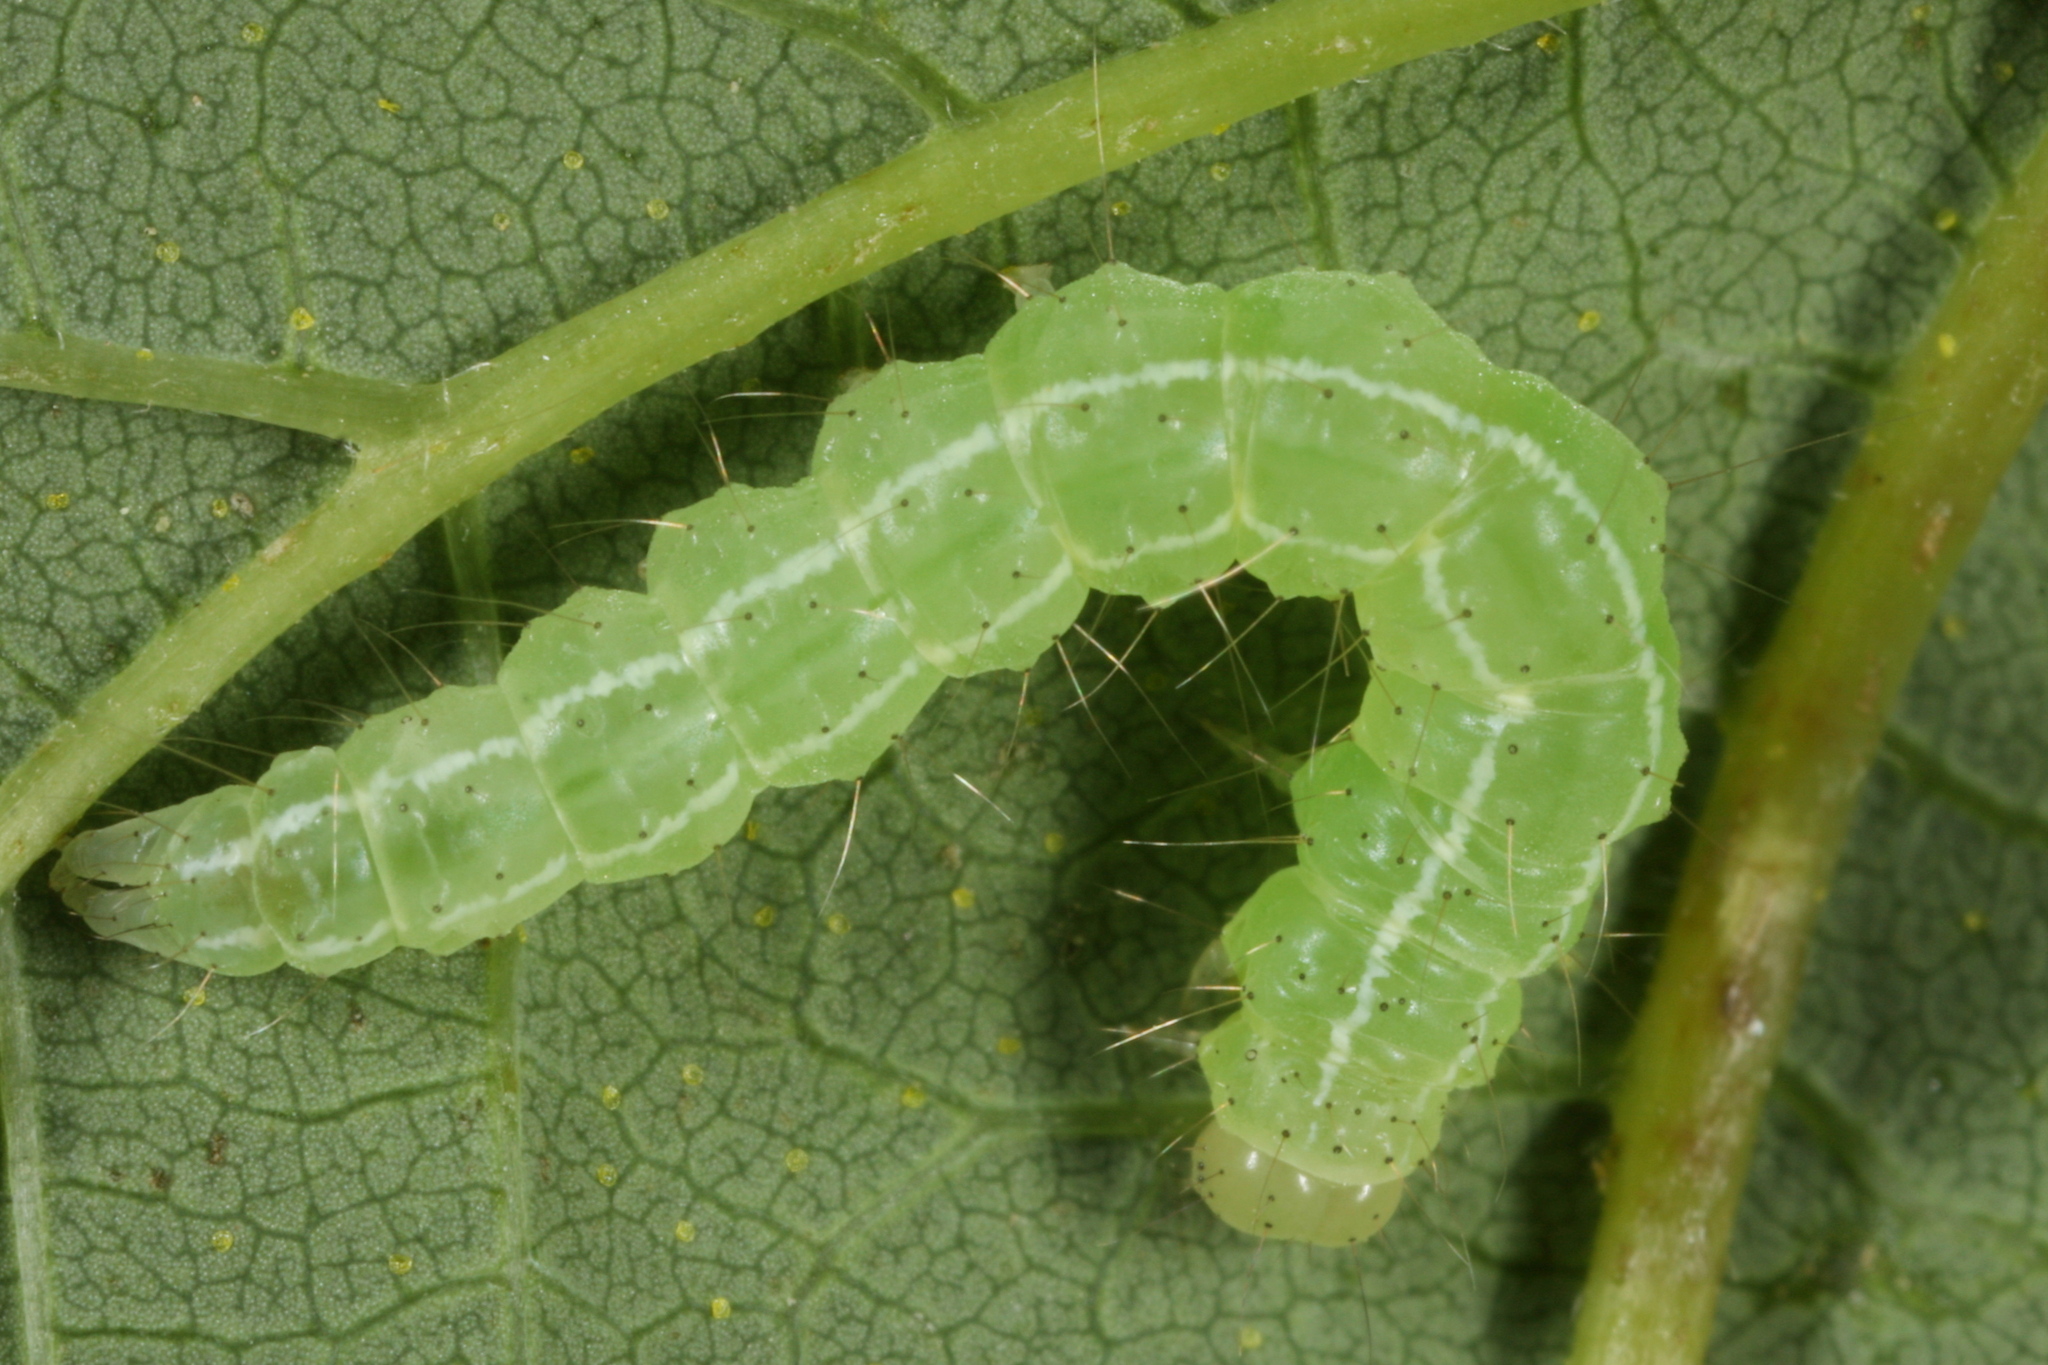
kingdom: Animalia
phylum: Arthropoda
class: Insecta
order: Lepidoptera
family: Erebidae
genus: Hypena
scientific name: Hypena rostralis
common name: Buttoned snout
